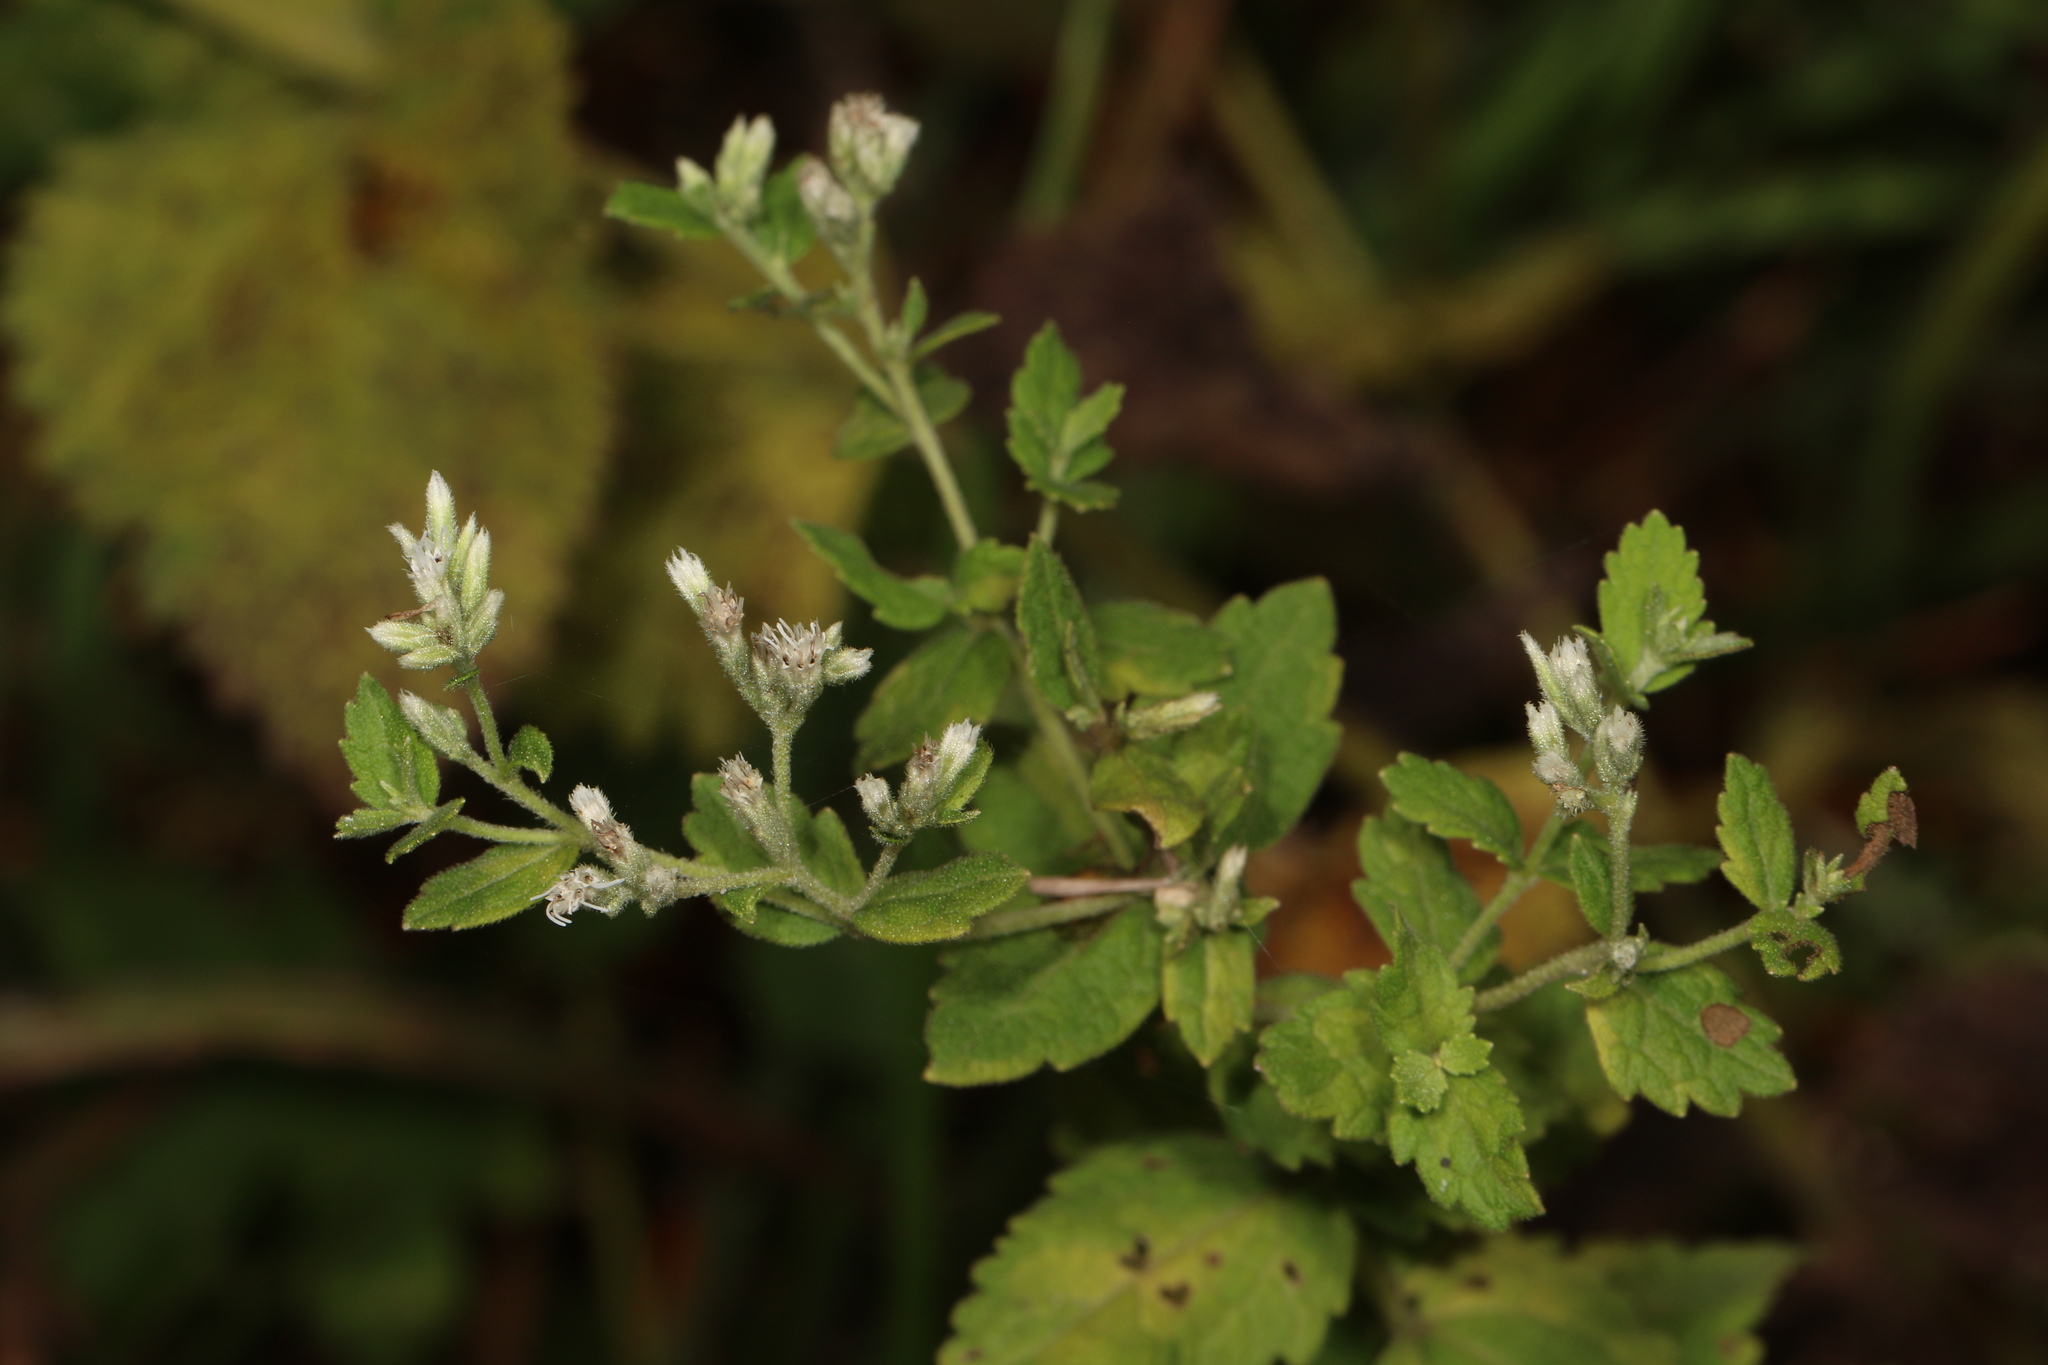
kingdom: Plantae
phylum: Tracheophyta
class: Magnoliopsida
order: Asterales
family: Asteraceae
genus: Eupatorium
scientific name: Eupatorium rotundifolium
